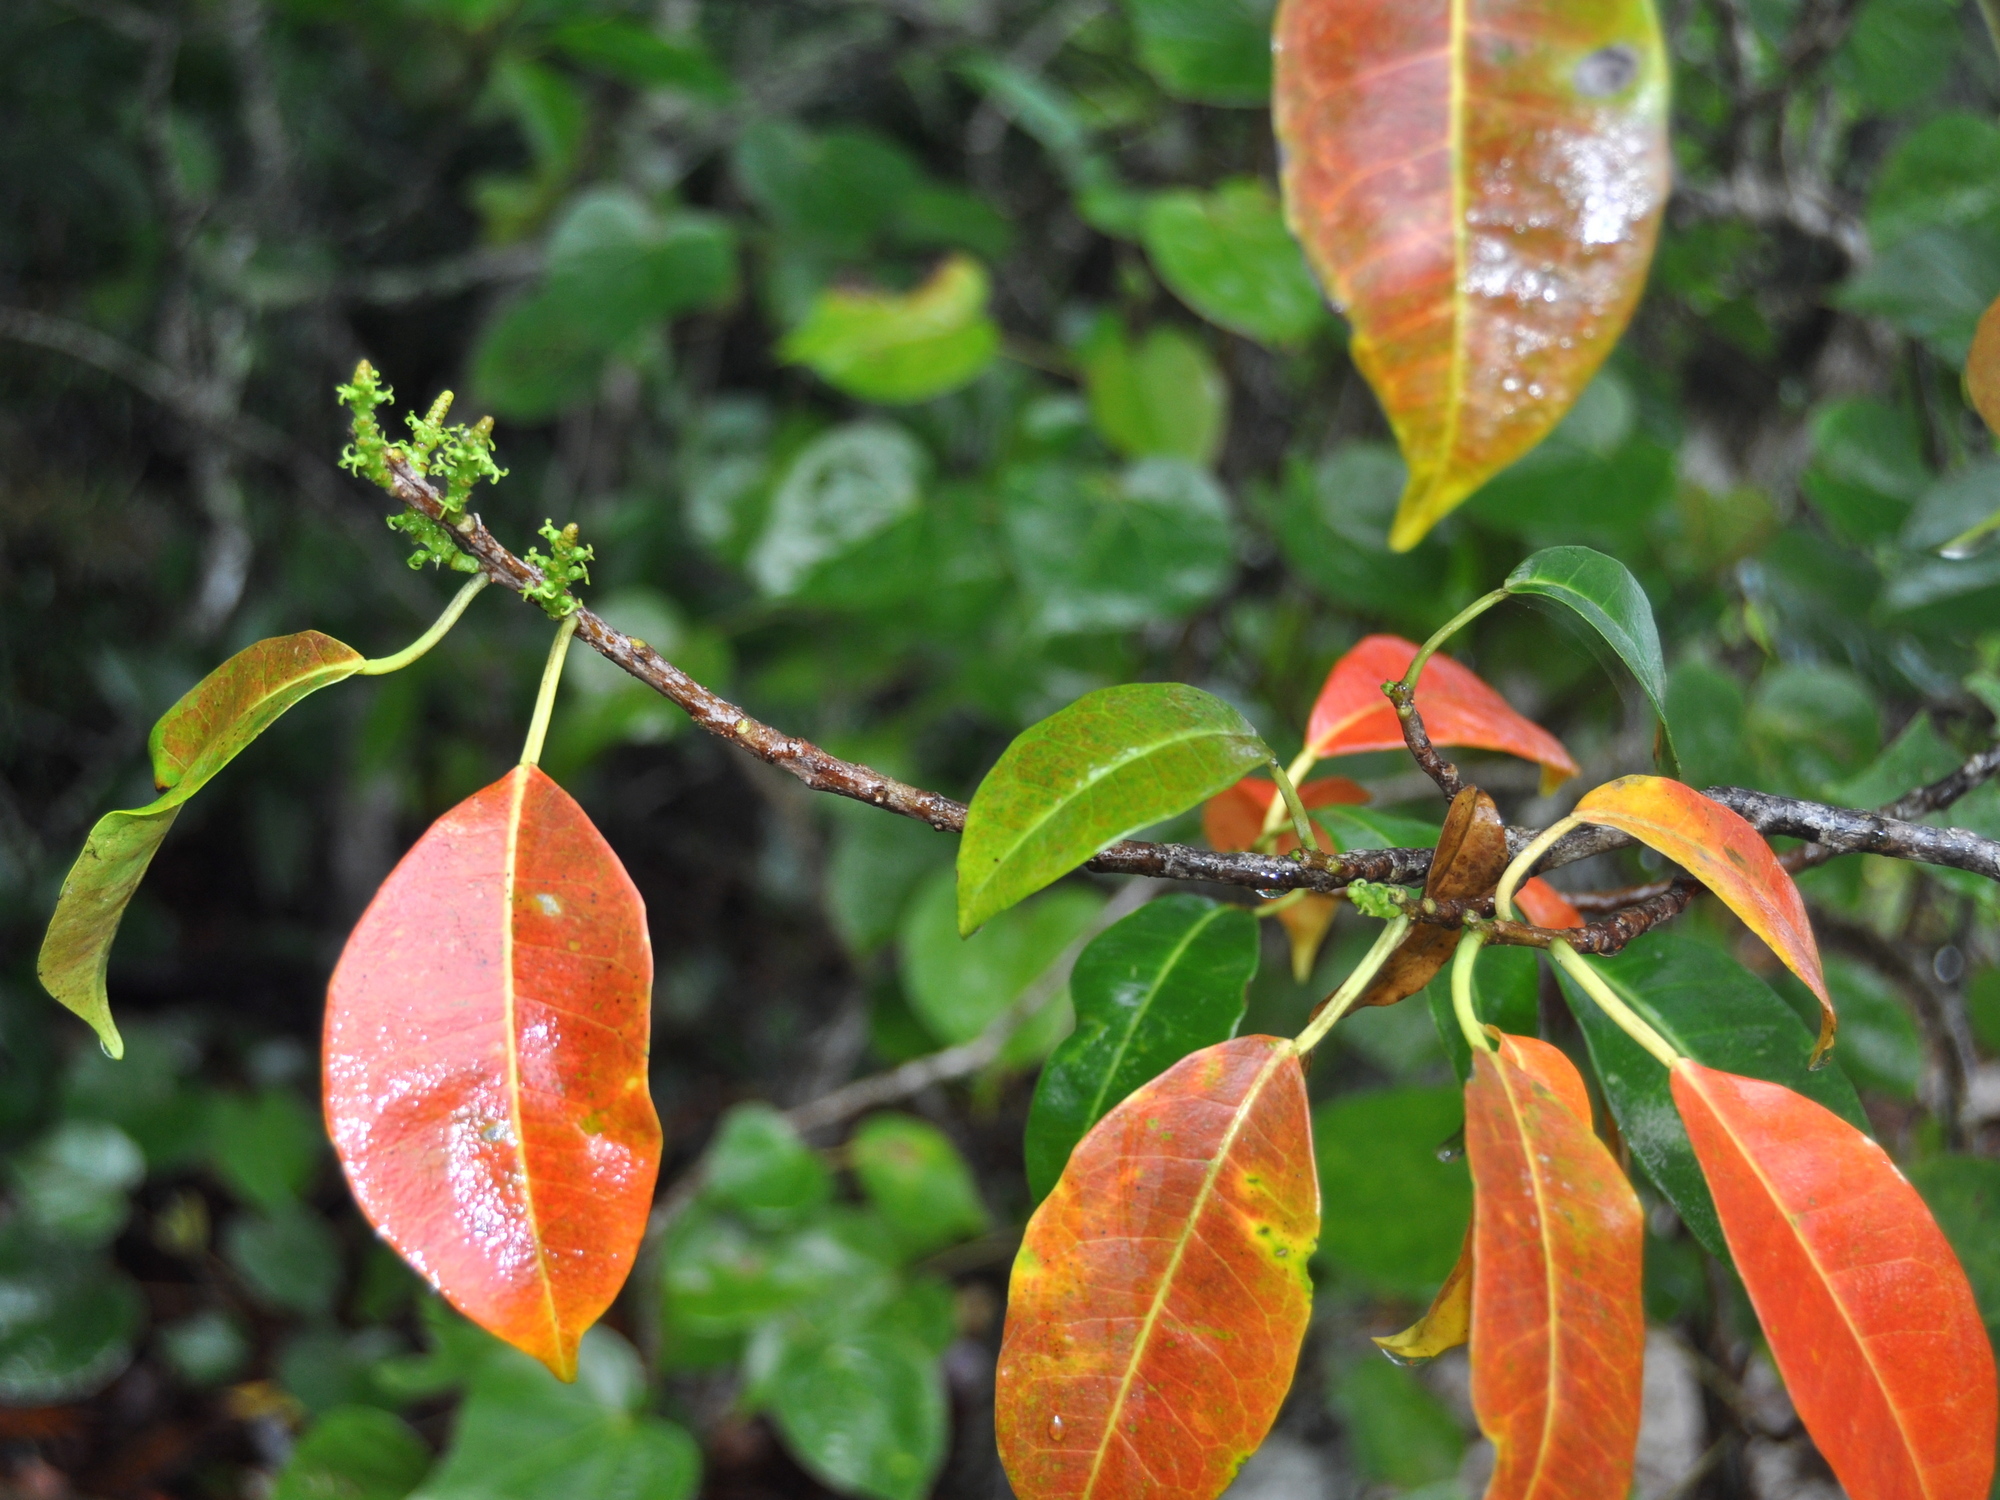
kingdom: Plantae
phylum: Tracheophyta
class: Magnoliopsida
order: Malpighiales
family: Euphorbiaceae
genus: Excoecaria
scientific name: Excoecaria agallocha
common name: River poisontree
